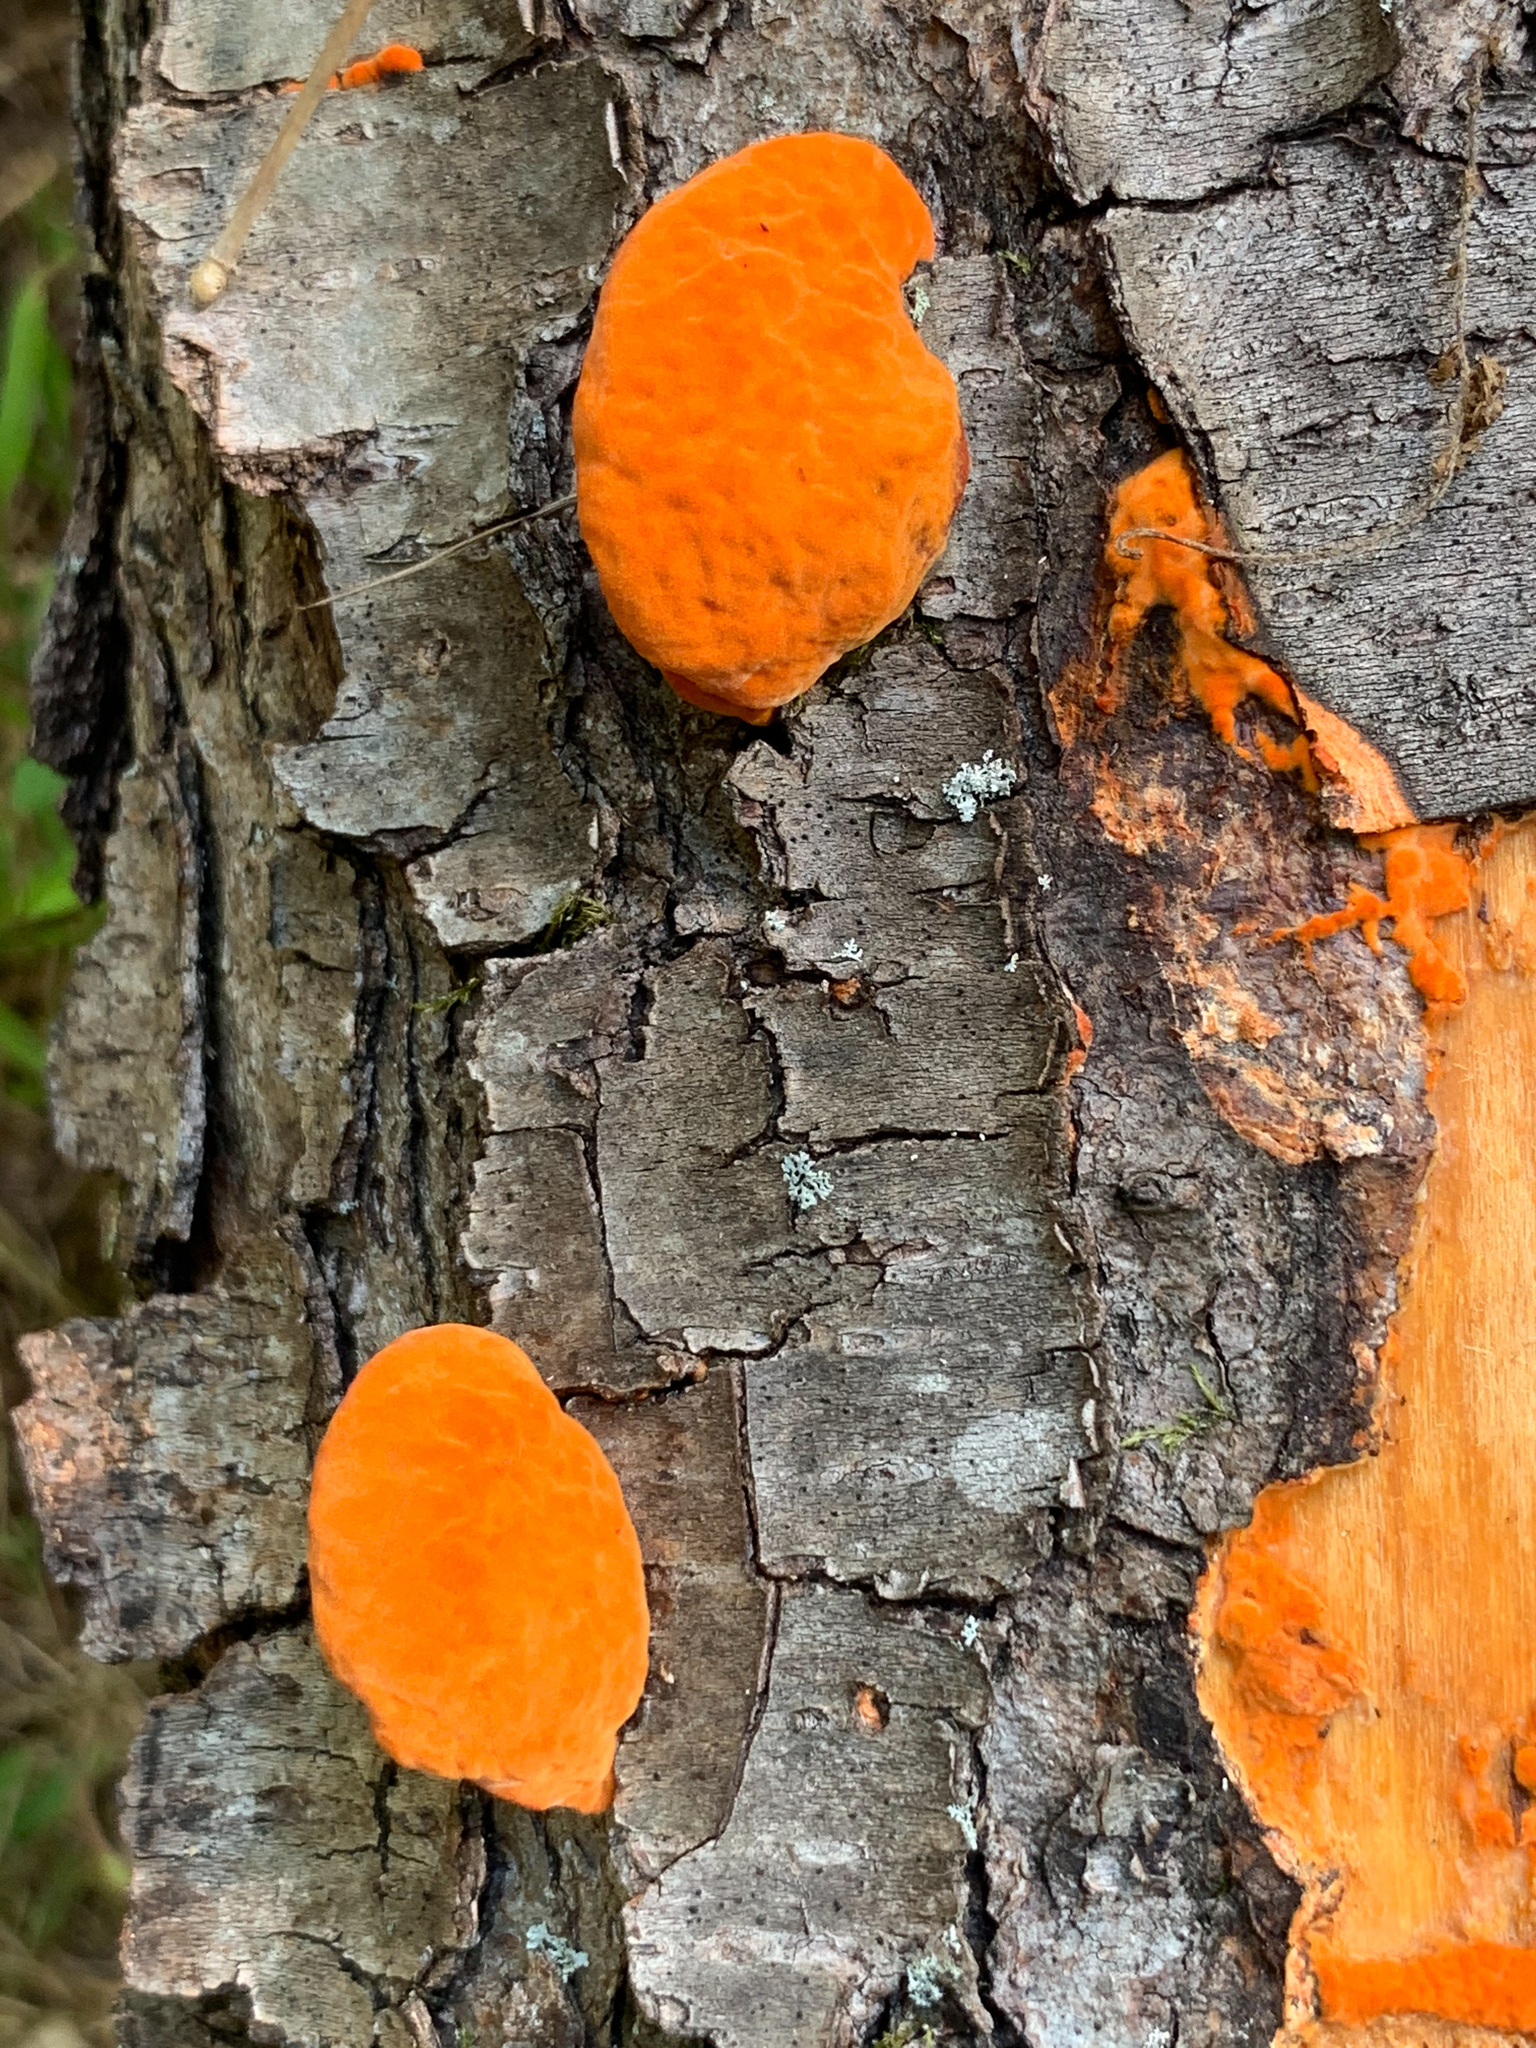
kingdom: Fungi
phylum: Basidiomycota
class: Agaricomycetes
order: Polyporales
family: Polyporaceae
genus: Trametes
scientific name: Trametes cinnabarina
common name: Northern cinnabar polypore
